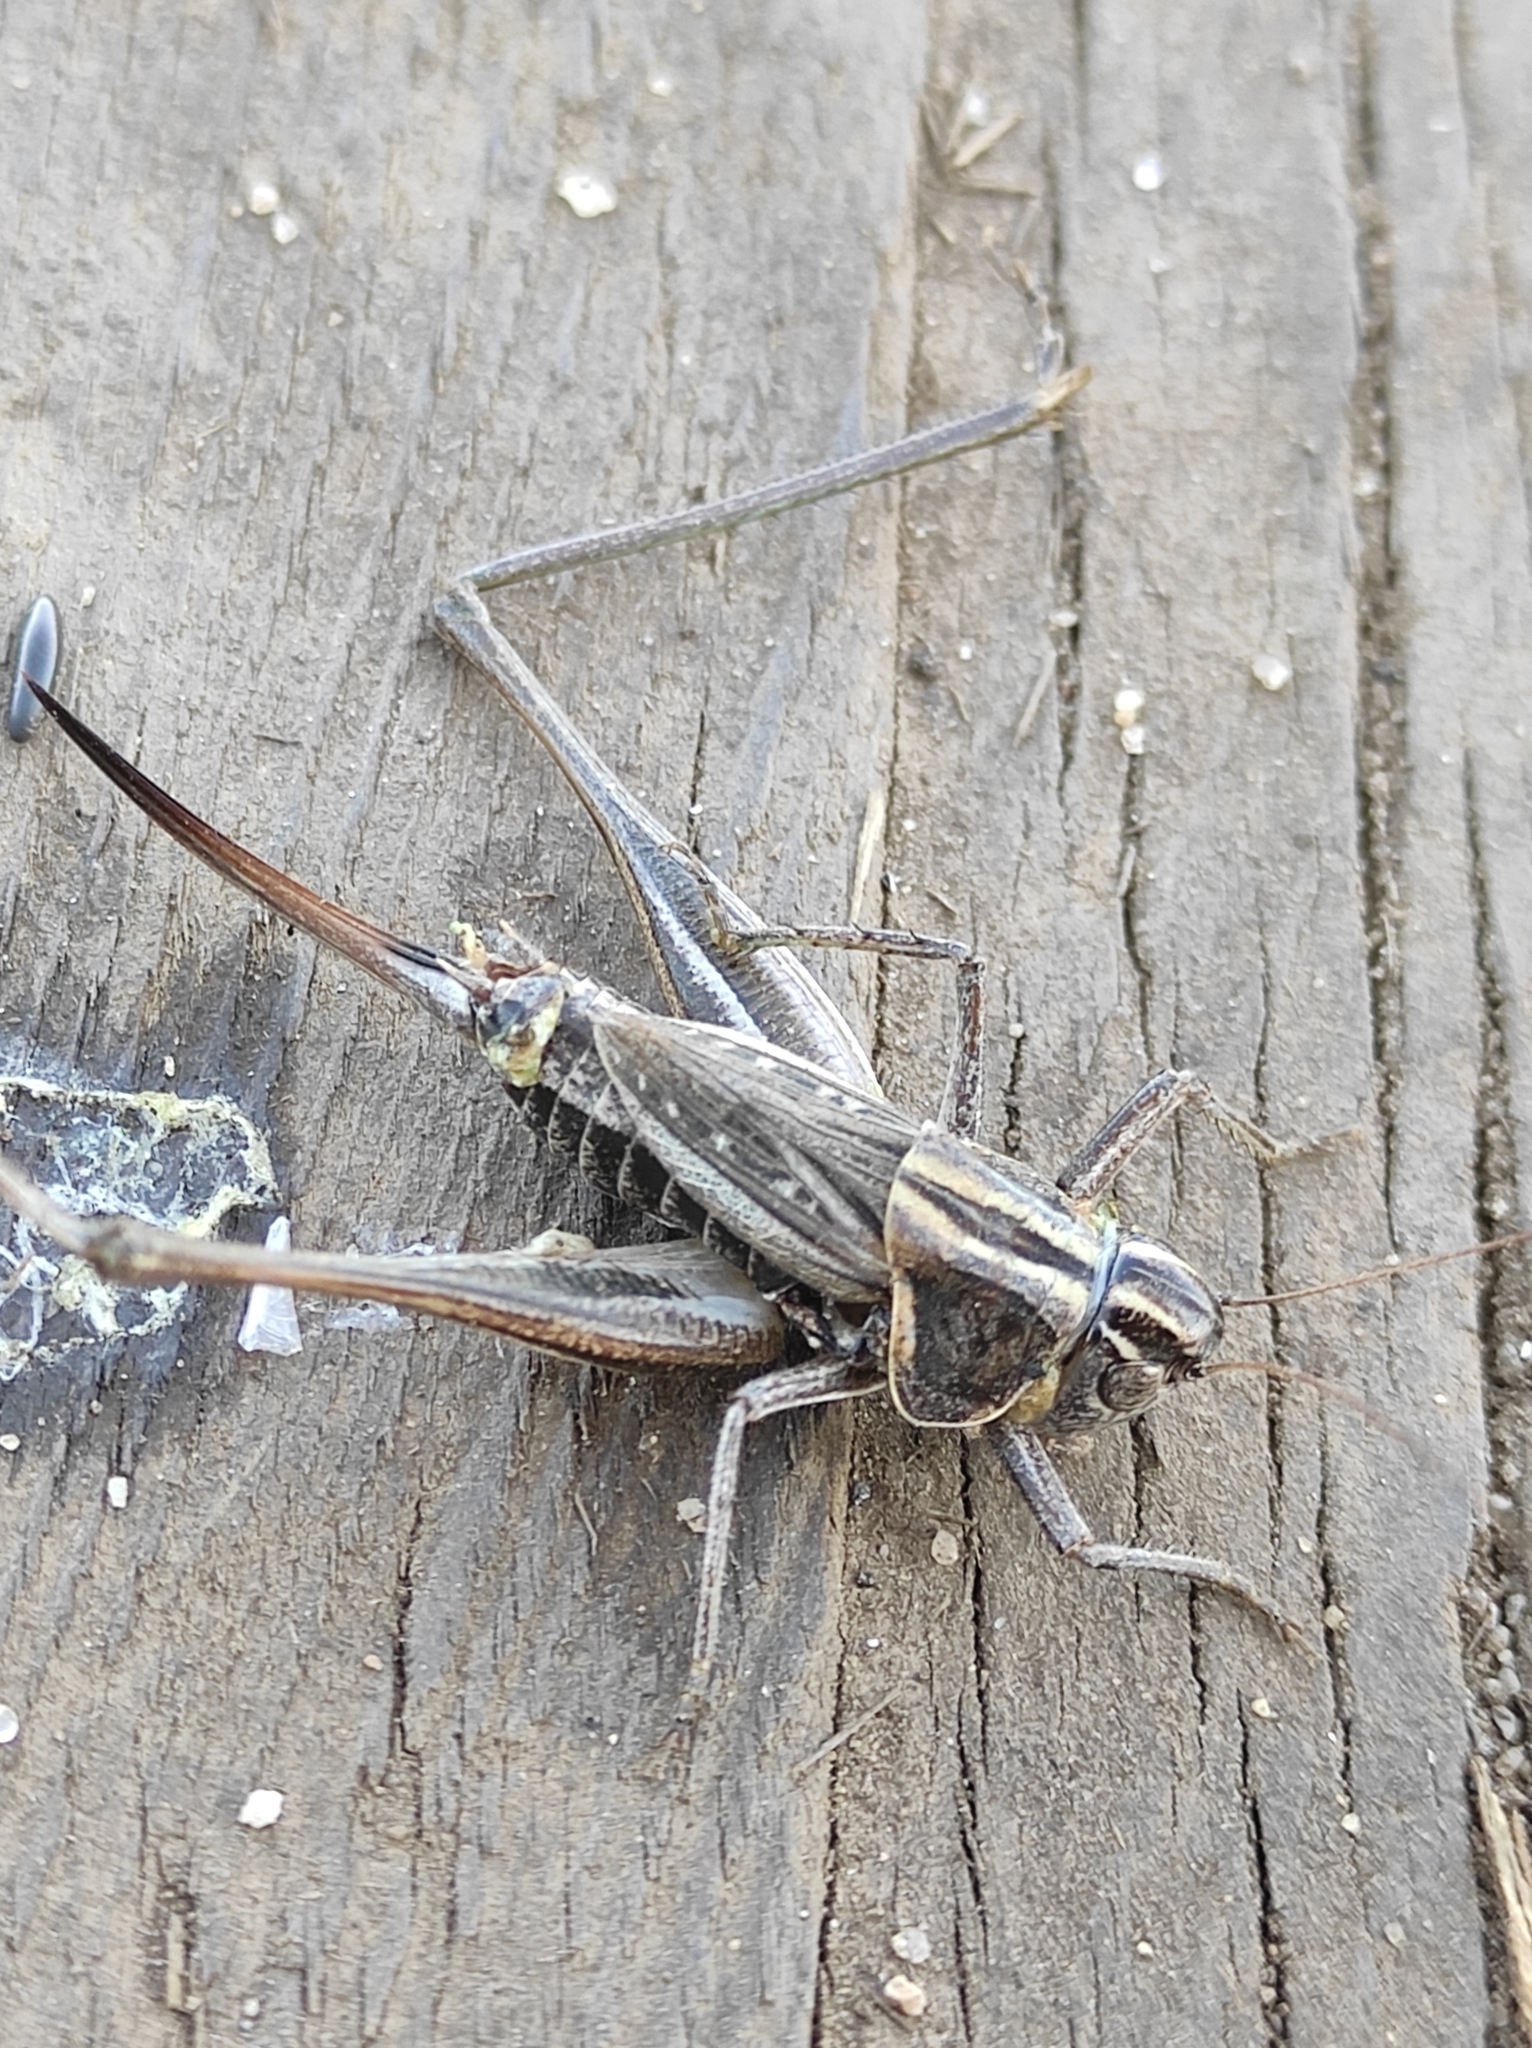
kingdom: Animalia
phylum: Arthropoda
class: Insecta
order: Orthoptera
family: Tettigoniidae
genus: Montana
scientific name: Montana tomini
